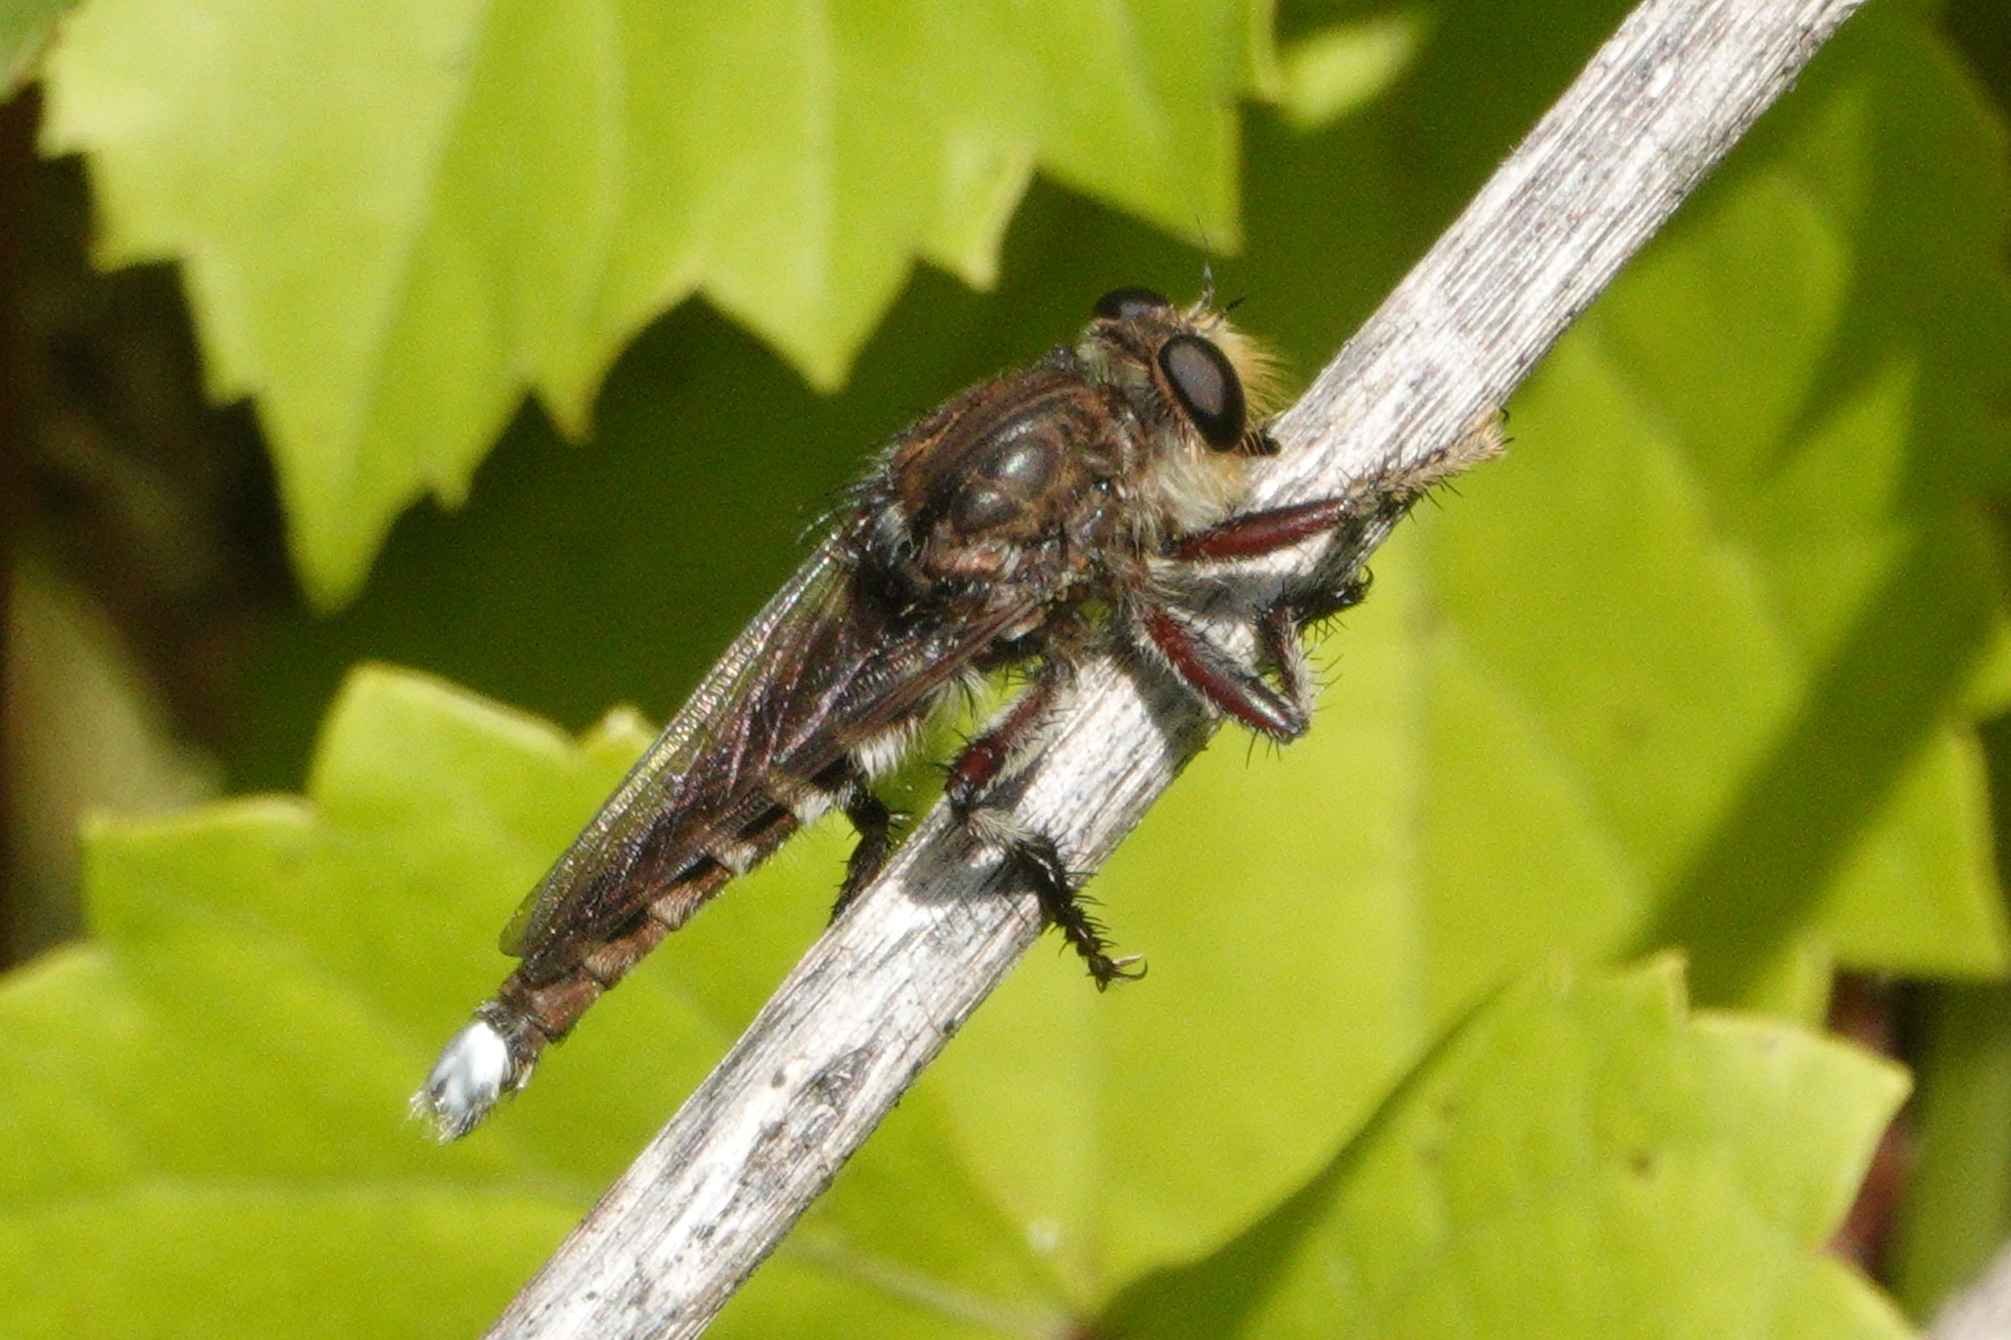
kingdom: Animalia
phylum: Arthropoda
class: Insecta
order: Diptera
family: Asilidae
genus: Promachus
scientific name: Promachus bastardii
